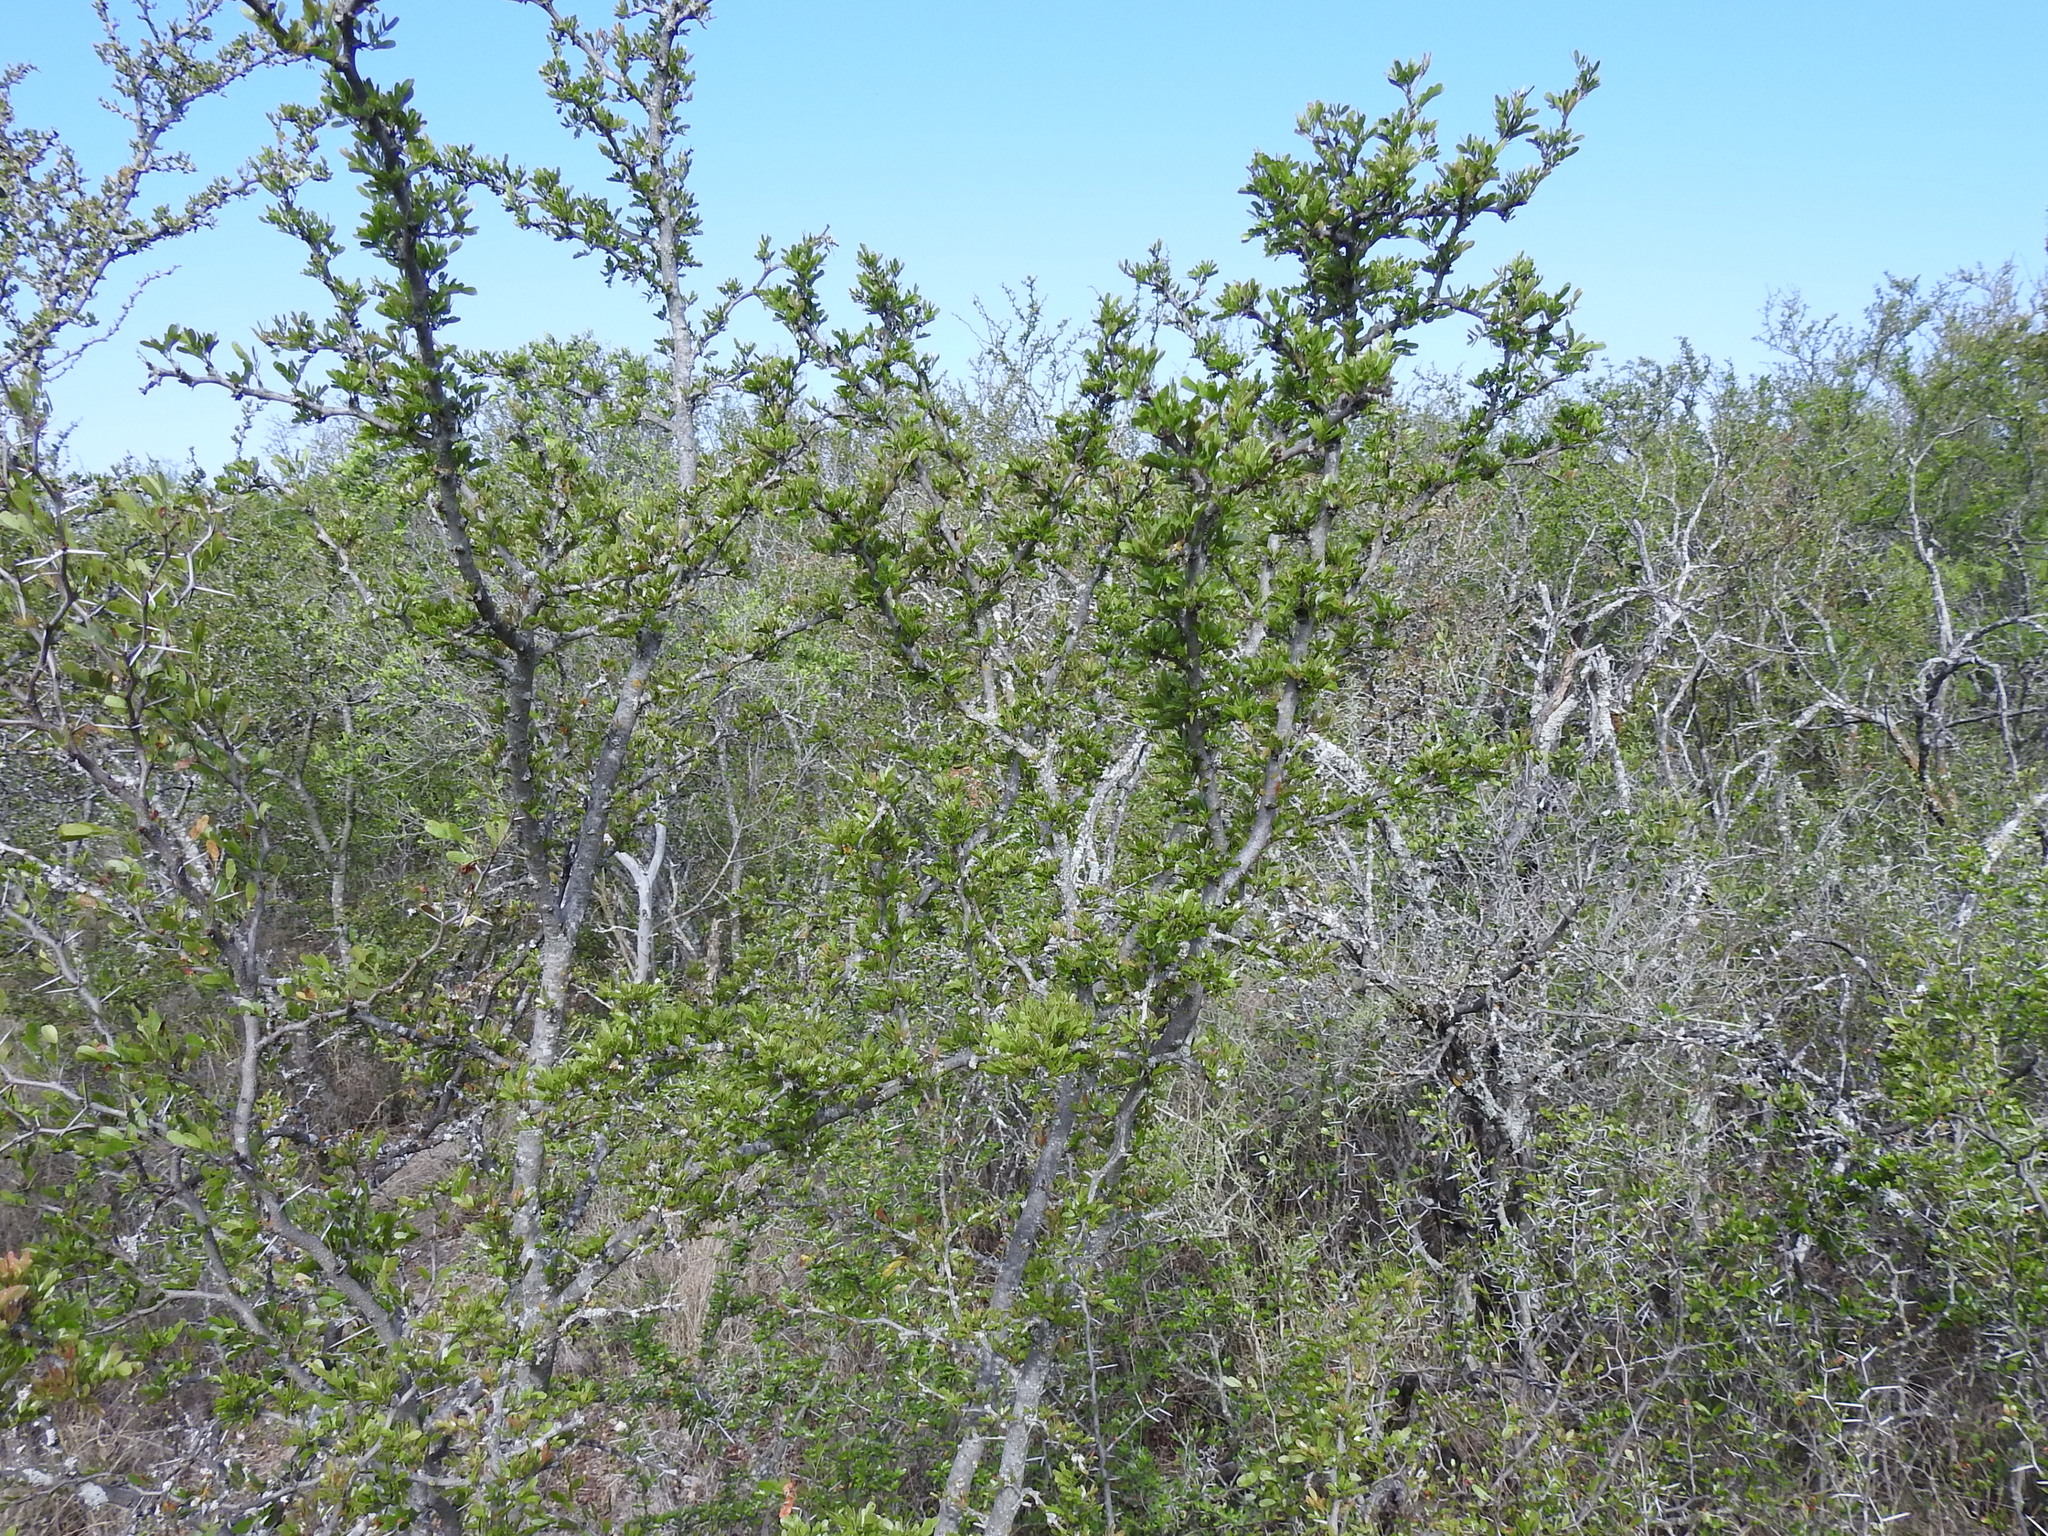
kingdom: Plantae
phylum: Tracheophyta
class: Magnoliopsida
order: Fabales
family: Fabaceae
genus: Vachellia
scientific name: Vachellia rigidula
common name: Blackbrush
